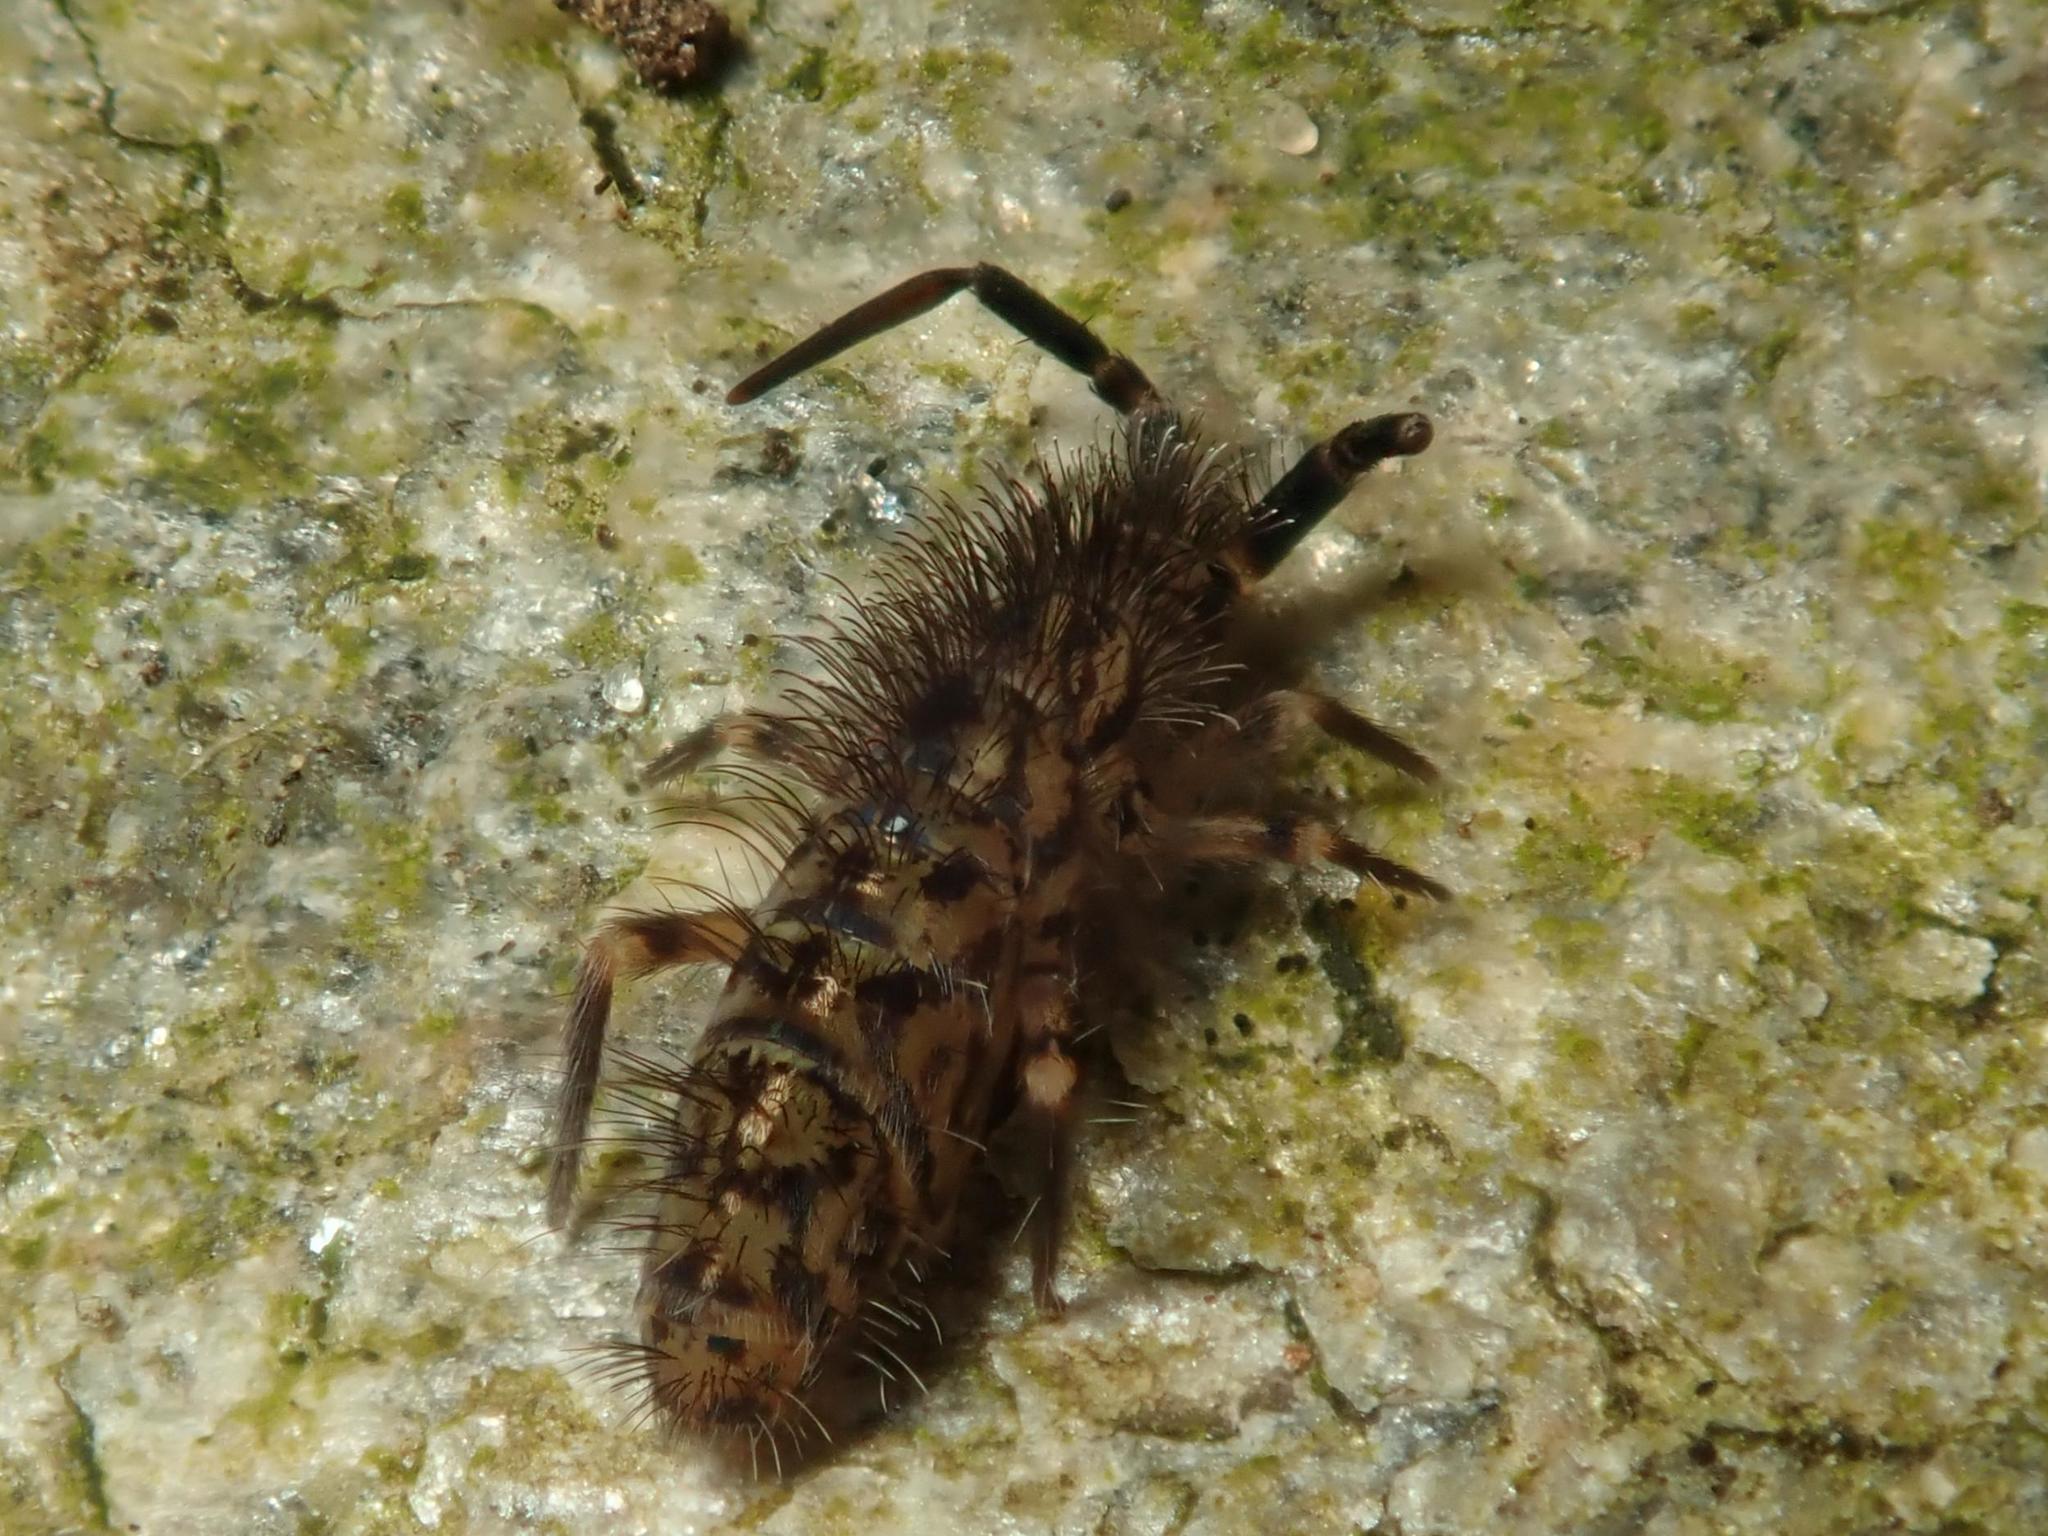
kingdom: Animalia
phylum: Arthropoda
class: Collembola
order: Entomobryomorpha
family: Orchesellidae
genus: Orchesella
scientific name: Orchesella villosa
